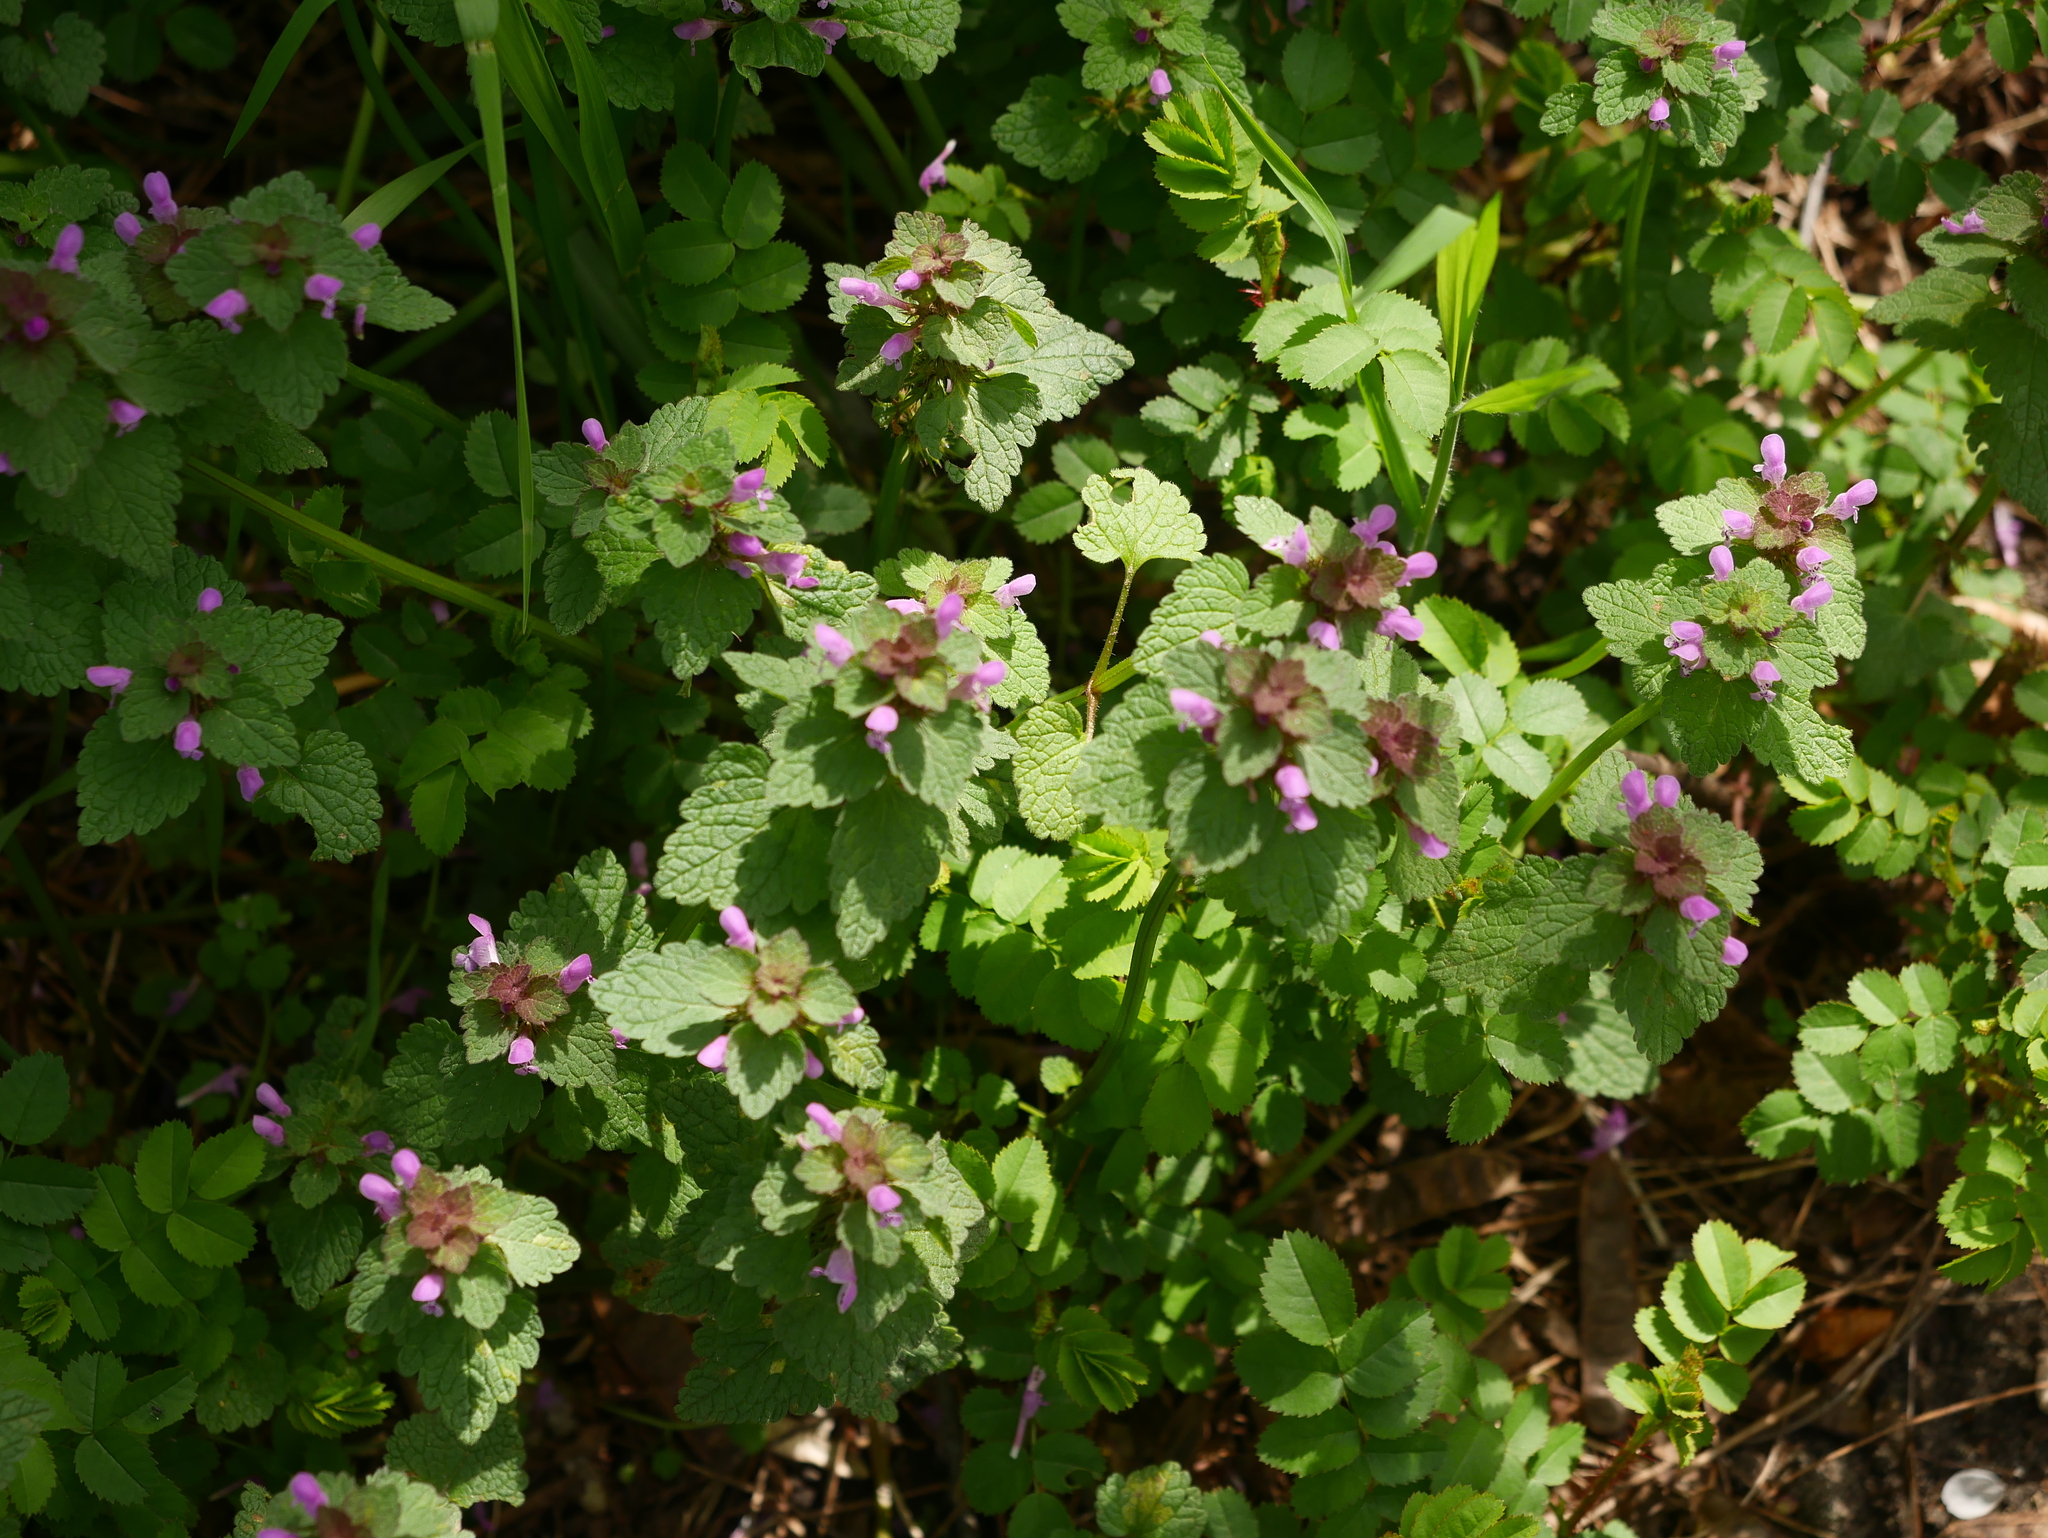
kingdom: Plantae
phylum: Tracheophyta
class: Magnoliopsida
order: Lamiales
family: Lamiaceae
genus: Lamium
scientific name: Lamium purpureum
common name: Red dead-nettle
